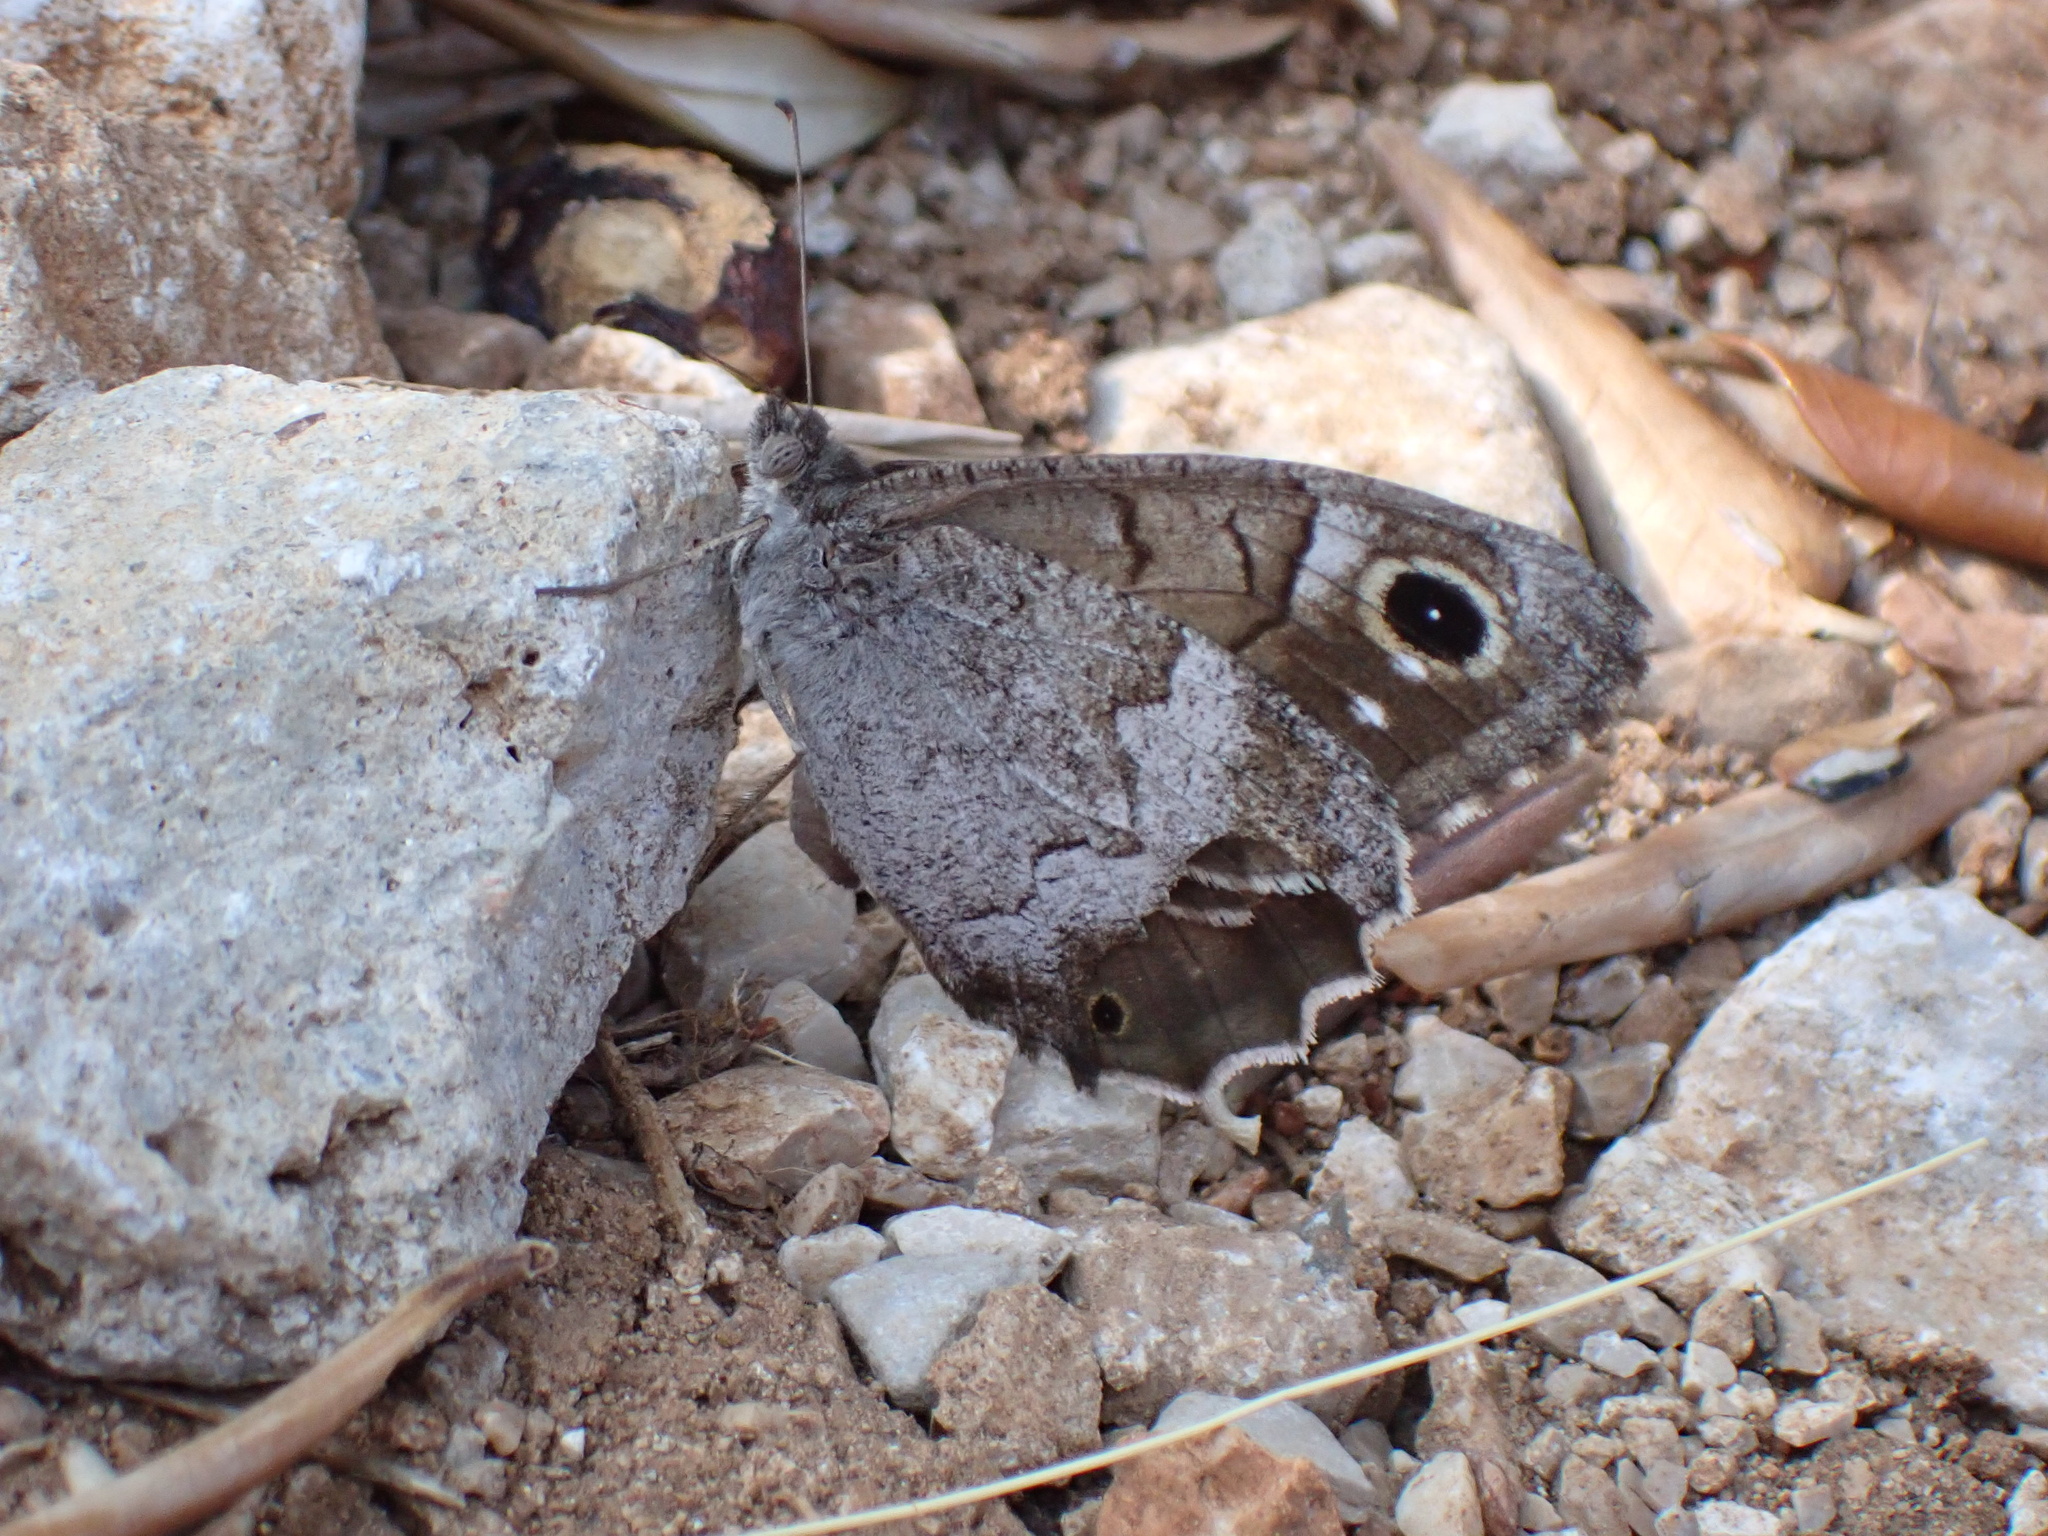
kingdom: Animalia
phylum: Arthropoda
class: Insecta
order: Lepidoptera
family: Nymphalidae
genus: Hipparchia
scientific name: Hipparchia statilinus
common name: Tree grayling
